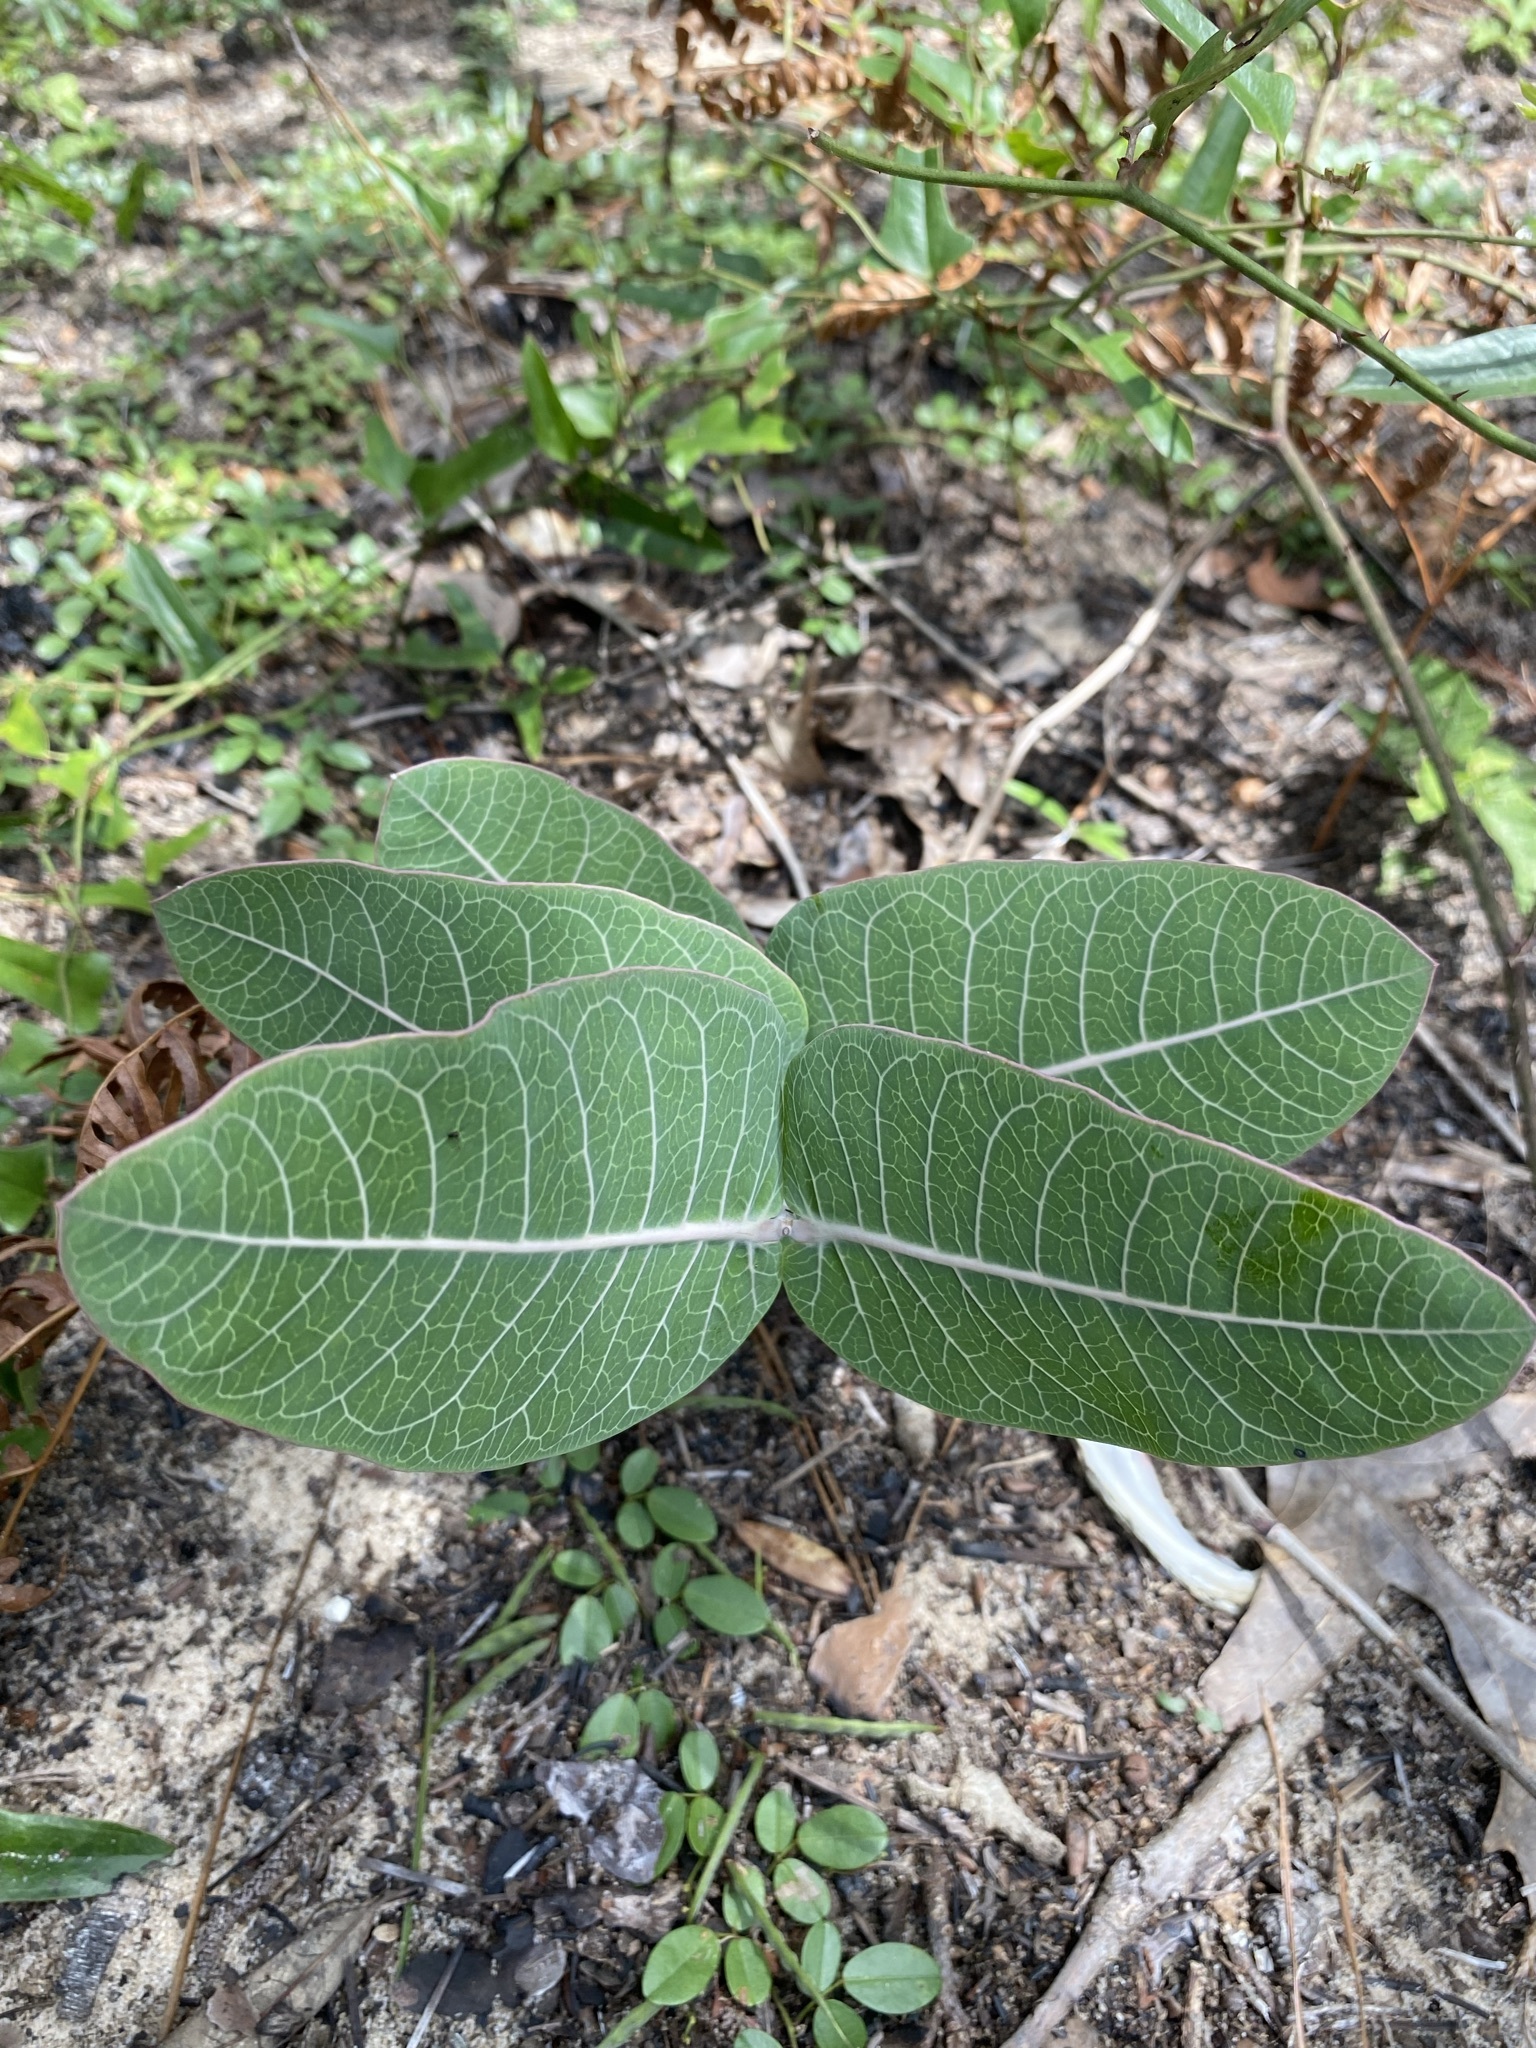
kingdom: Plantae
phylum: Tracheophyta
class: Magnoliopsida
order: Gentianales
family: Apocynaceae
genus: Asclepias
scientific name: Asclepias humistrata
